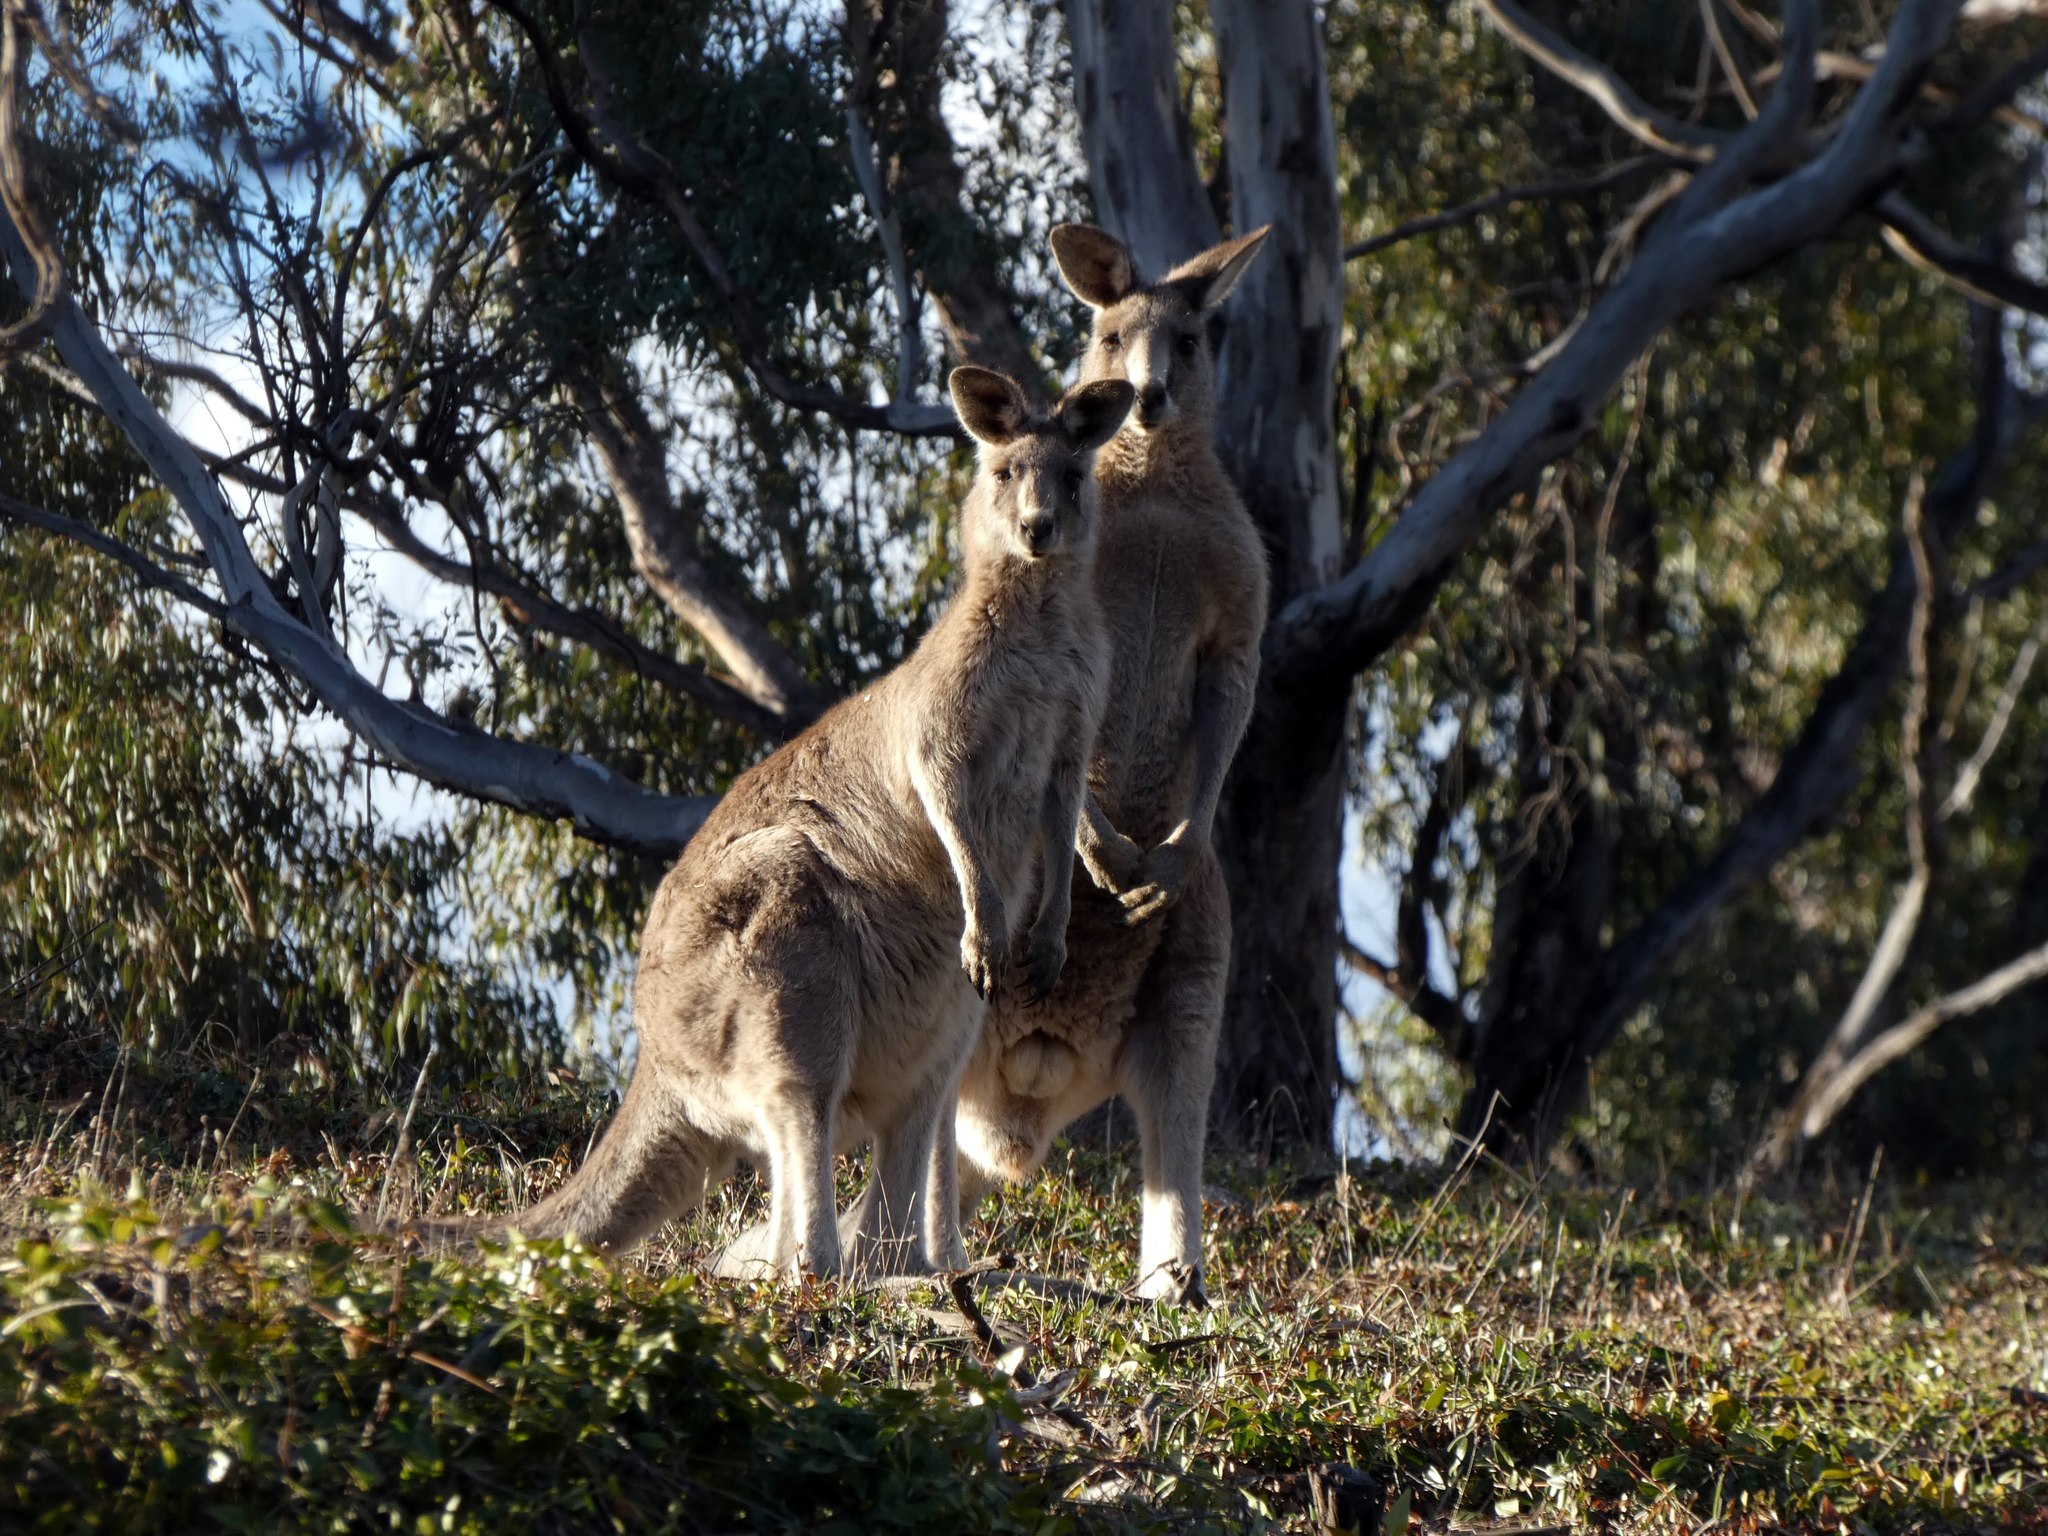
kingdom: Animalia
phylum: Chordata
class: Mammalia
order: Diprotodontia
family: Macropodidae
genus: Macropus
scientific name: Macropus giganteus
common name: Eastern grey kangaroo
